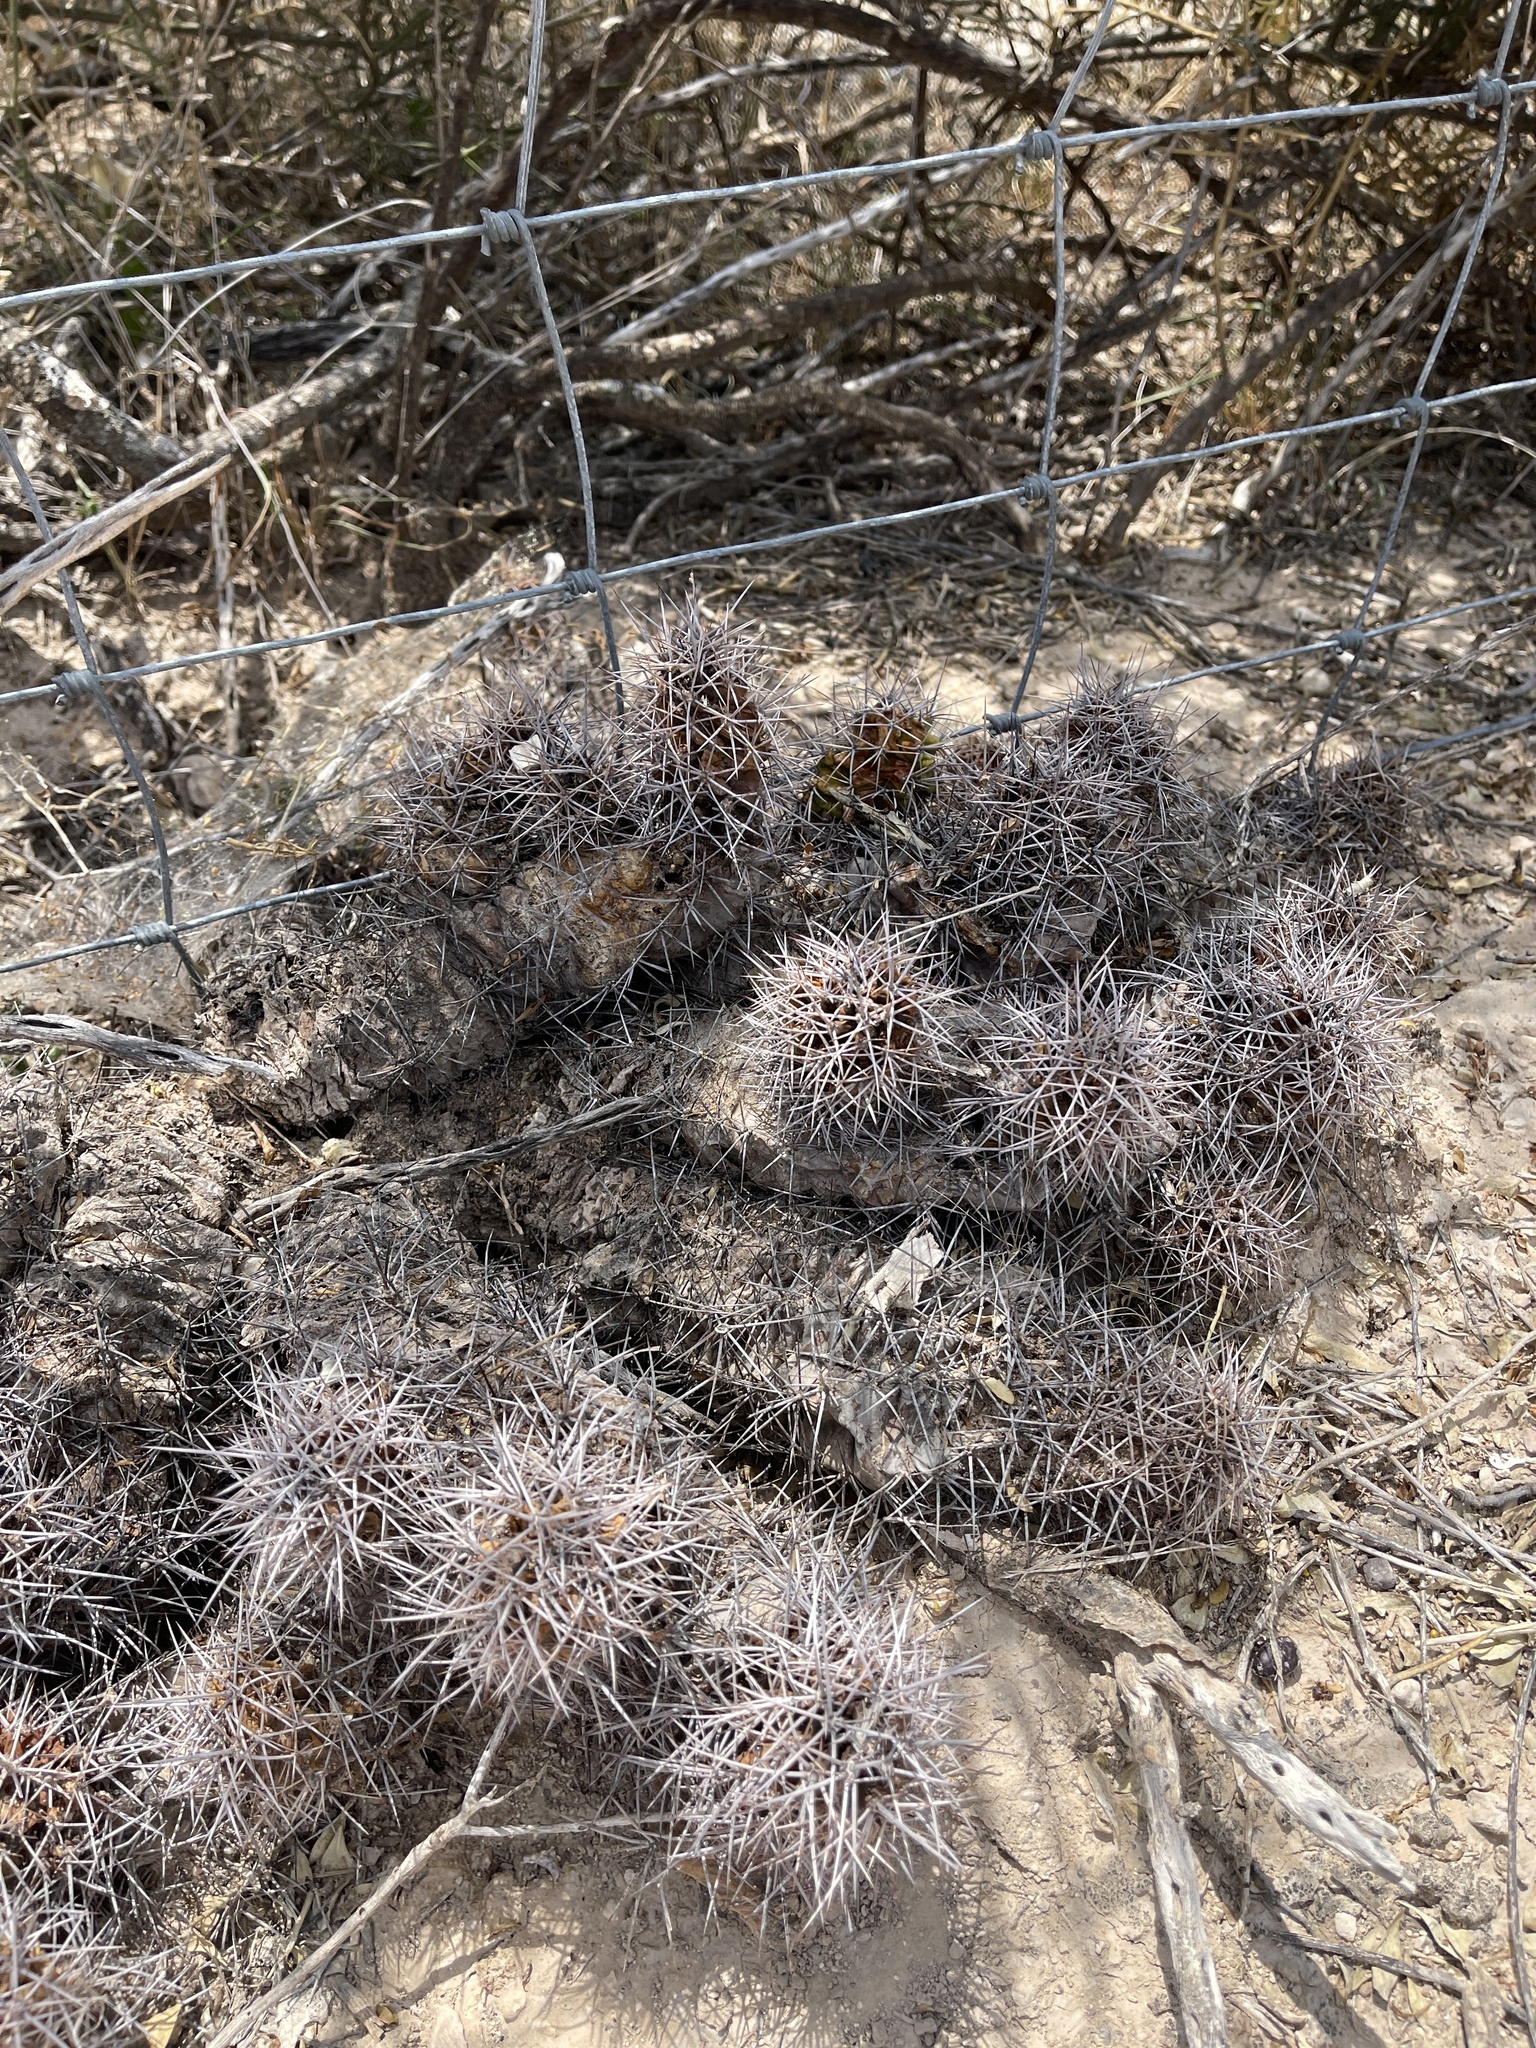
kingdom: Plantae
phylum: Tracheophyta
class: Magnoliopsida
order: Caryophyllales
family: Cactaceae
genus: Echinocereus
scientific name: Echinocereus coccineus
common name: Scarlet hedgehog cactus
